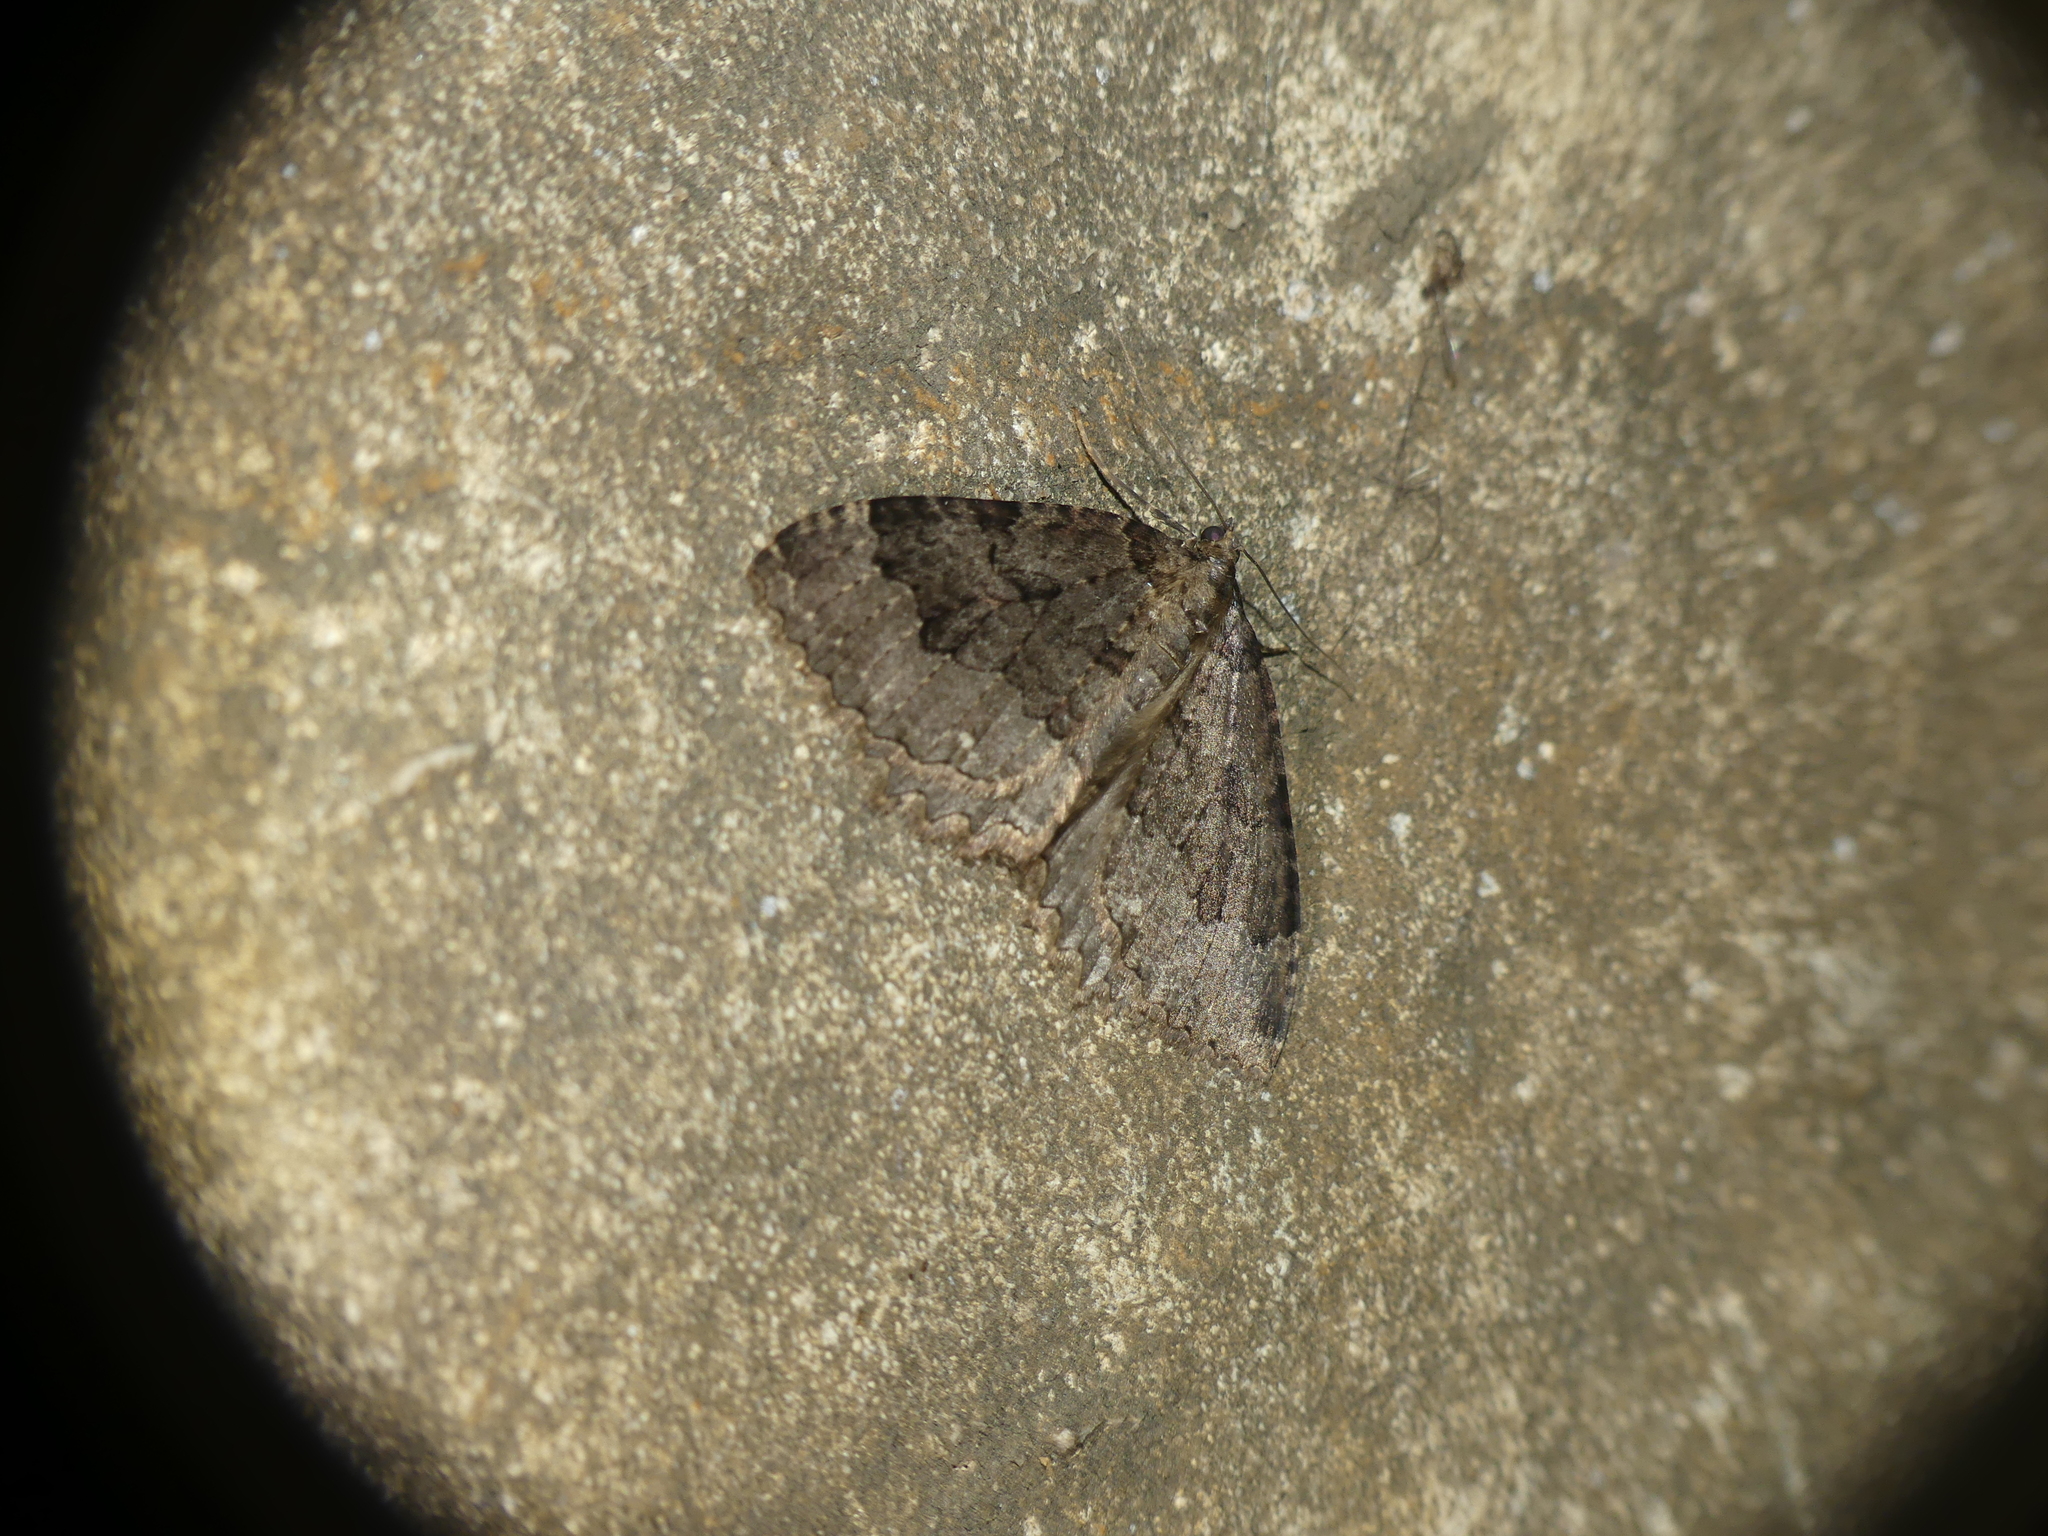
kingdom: Animalia
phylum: Arthropoda
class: Insecta
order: Lepidoptera
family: Geometridae
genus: Triphosa
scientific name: Triphosa dubitata
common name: Tissue
